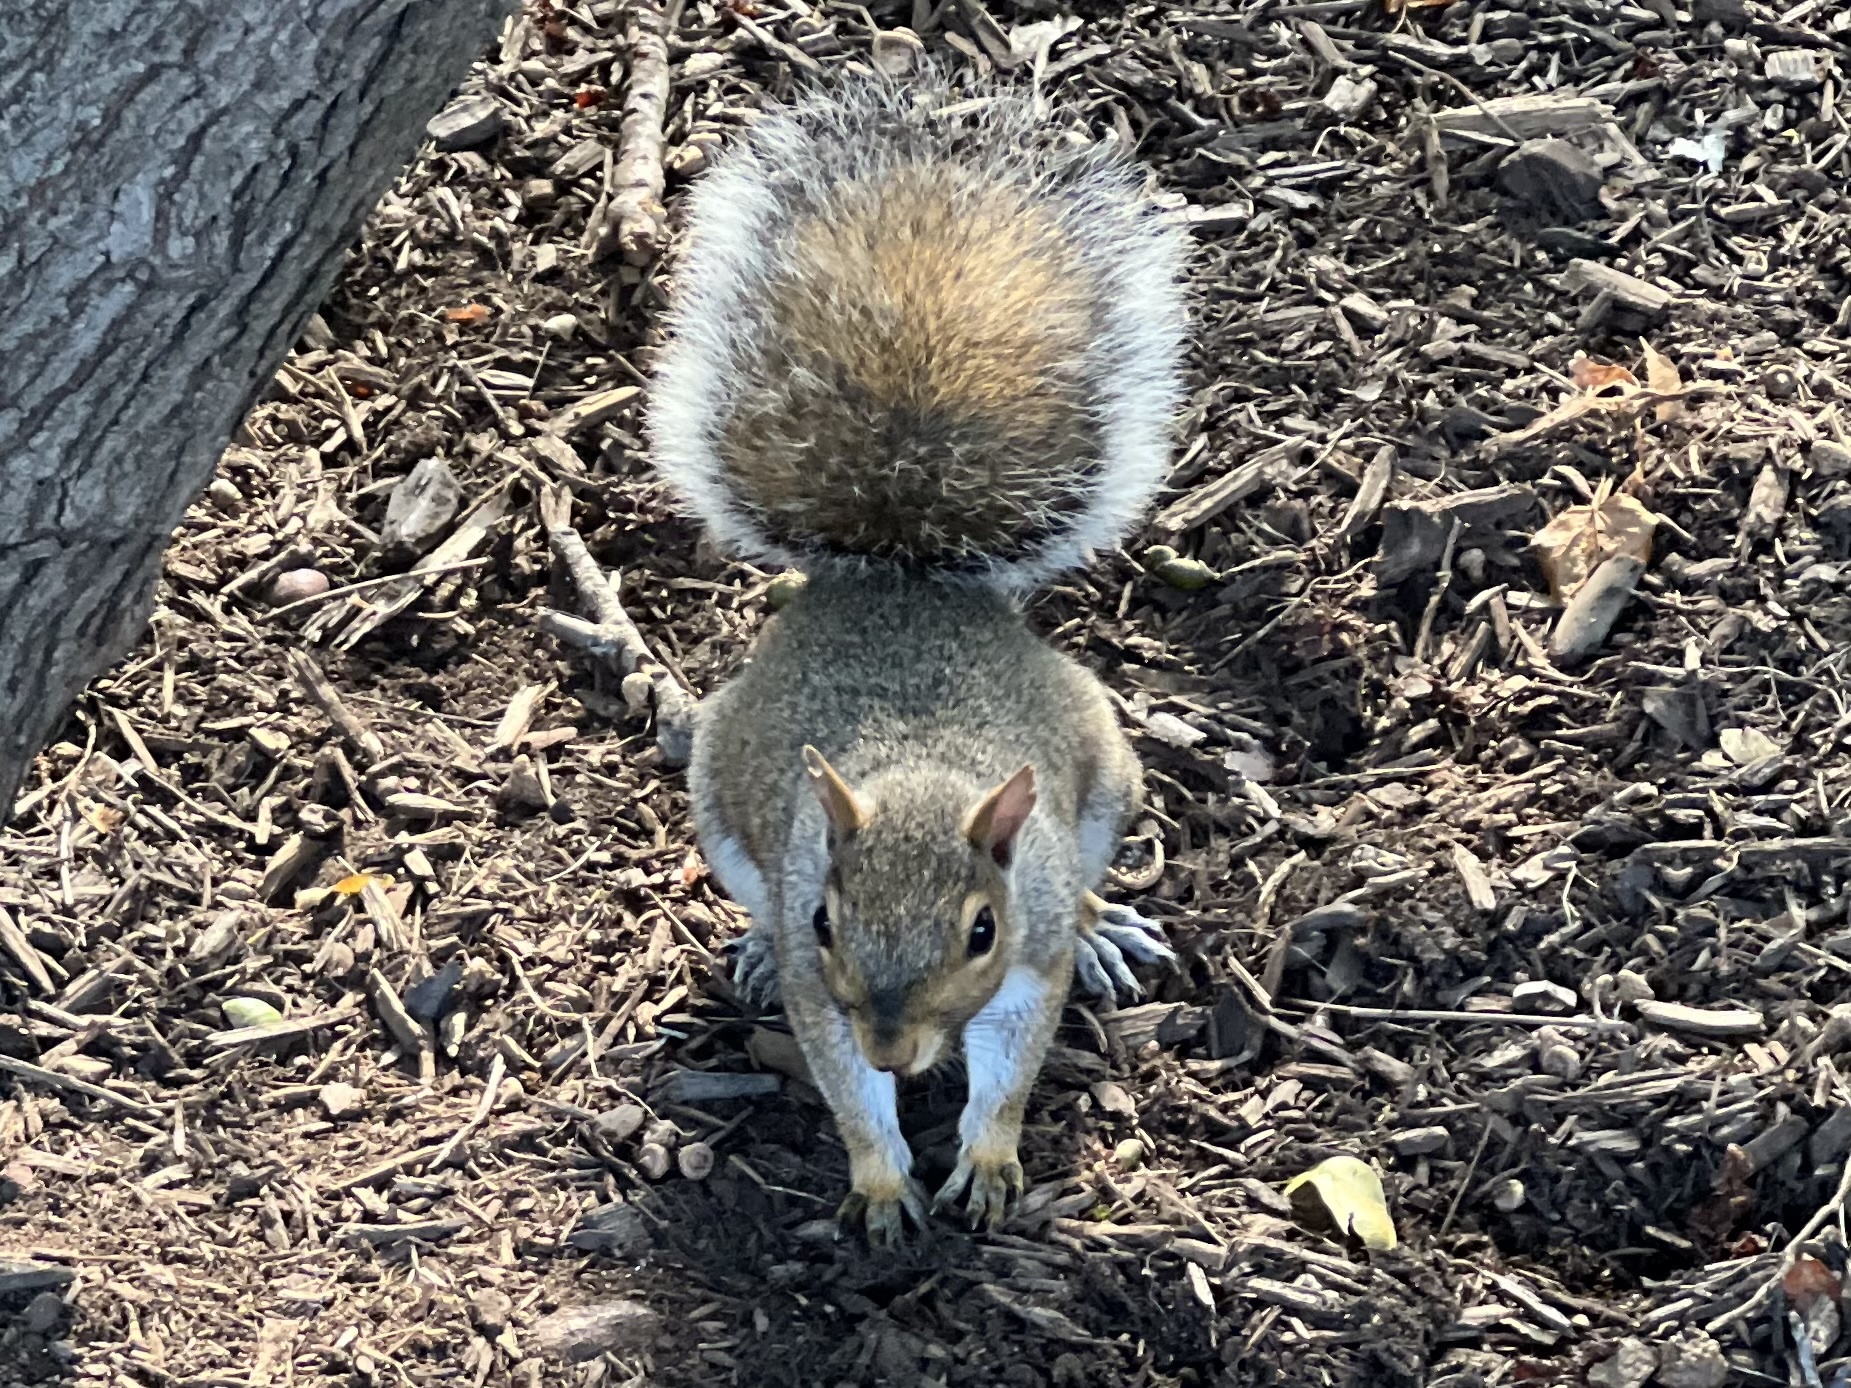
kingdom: Animalia
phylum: Chordata
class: Mammalia
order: Rodentia
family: Sciuridae
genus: Sciurus
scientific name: Sciurus carolinensis
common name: Eastern gray squirrel
